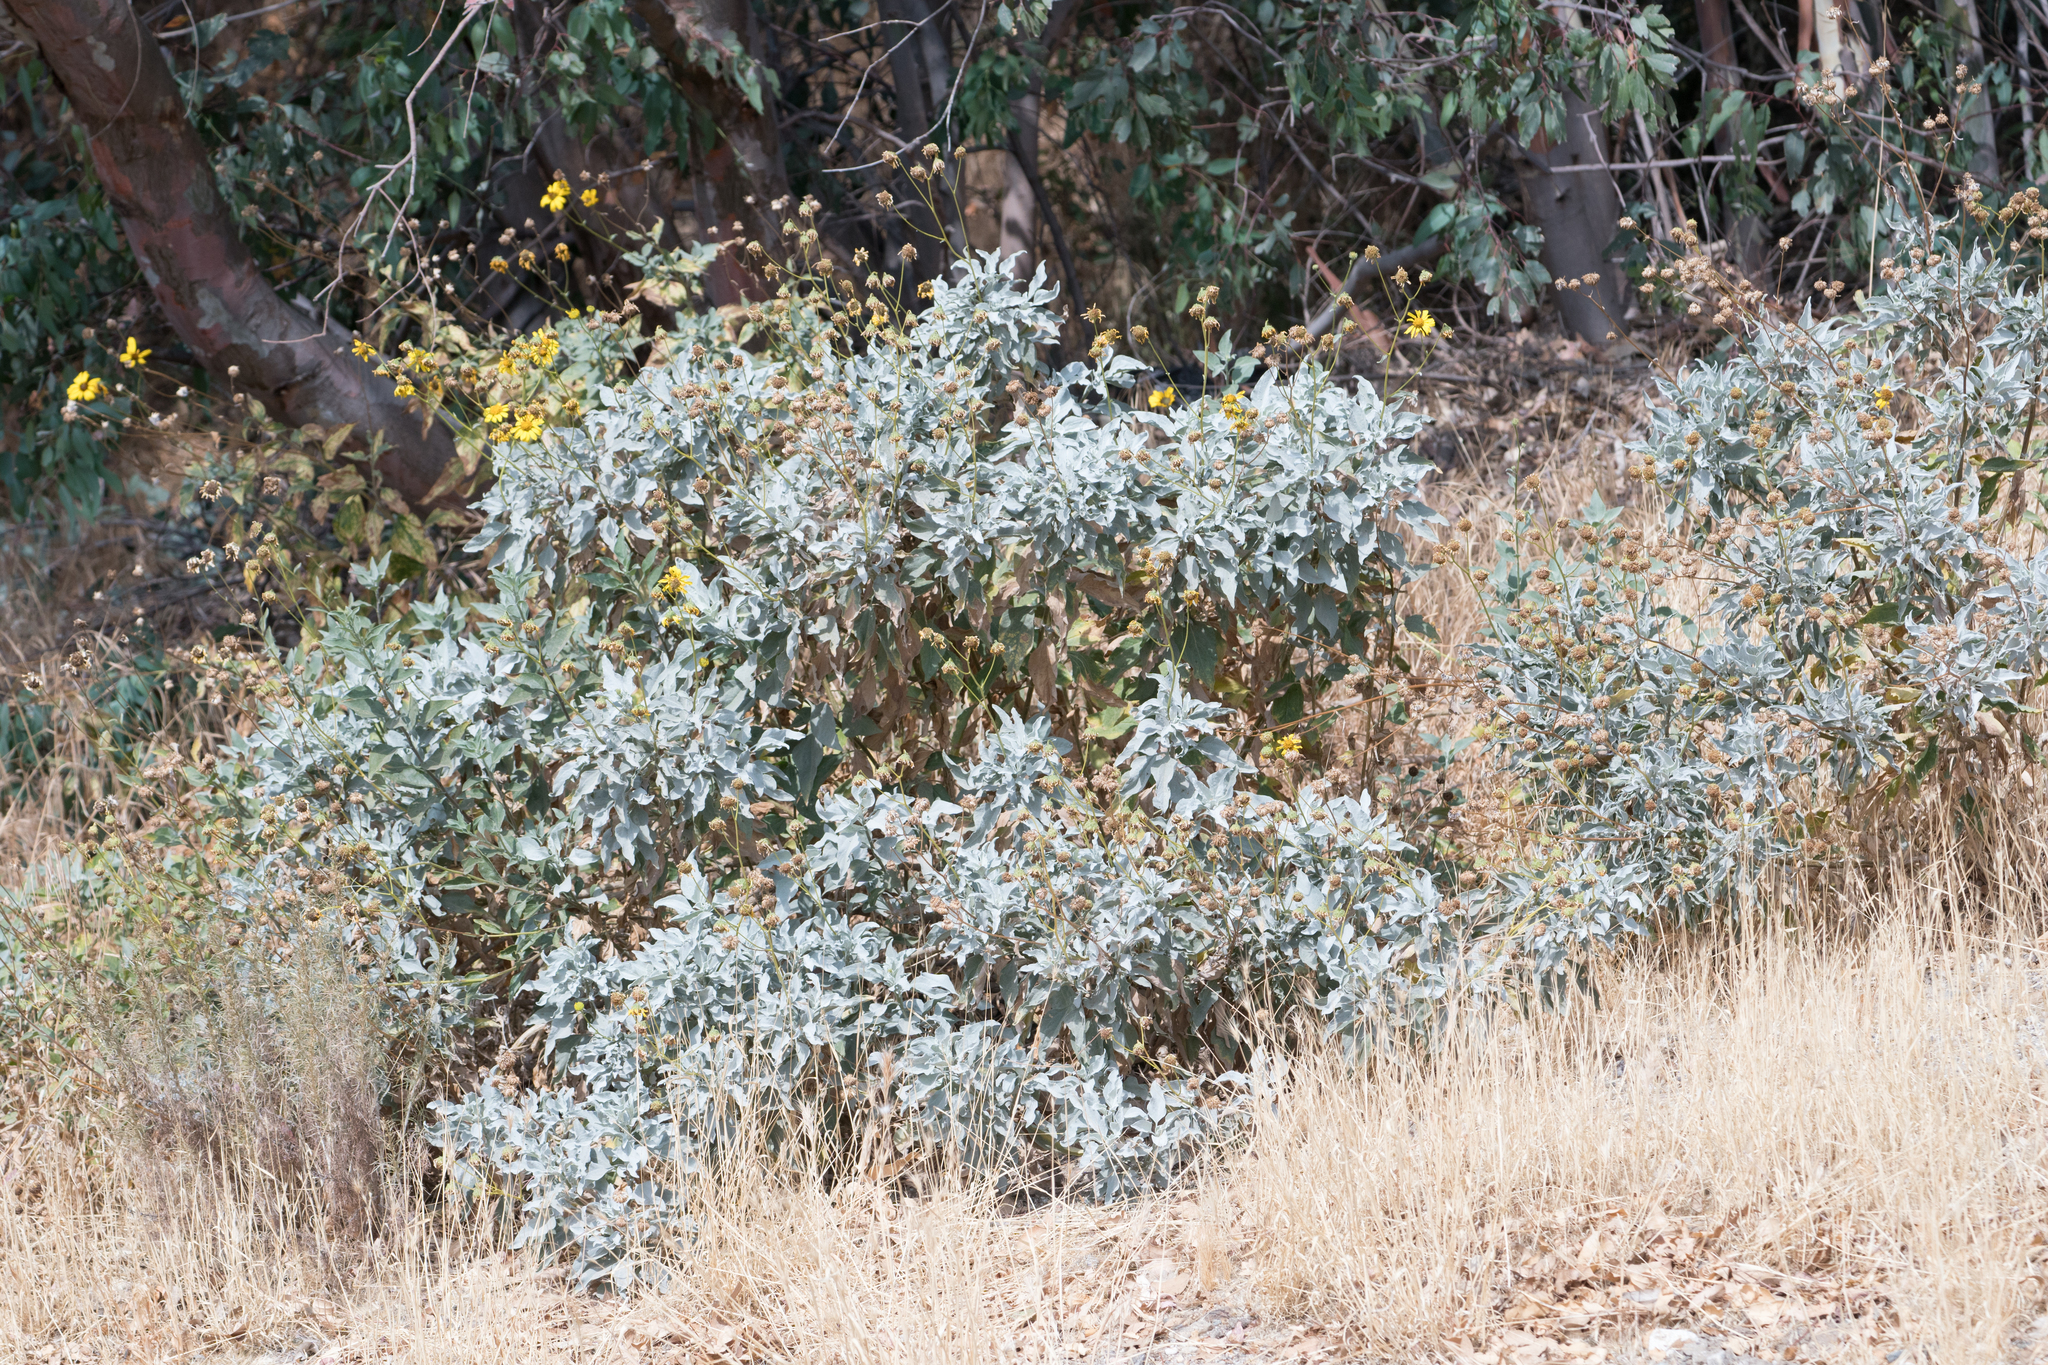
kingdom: Plantae
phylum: Tracheophyta
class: Magnoliopsida
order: Asterales
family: Asteraceae
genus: Encelia
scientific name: Encelia farinosa
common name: Brittlebush
